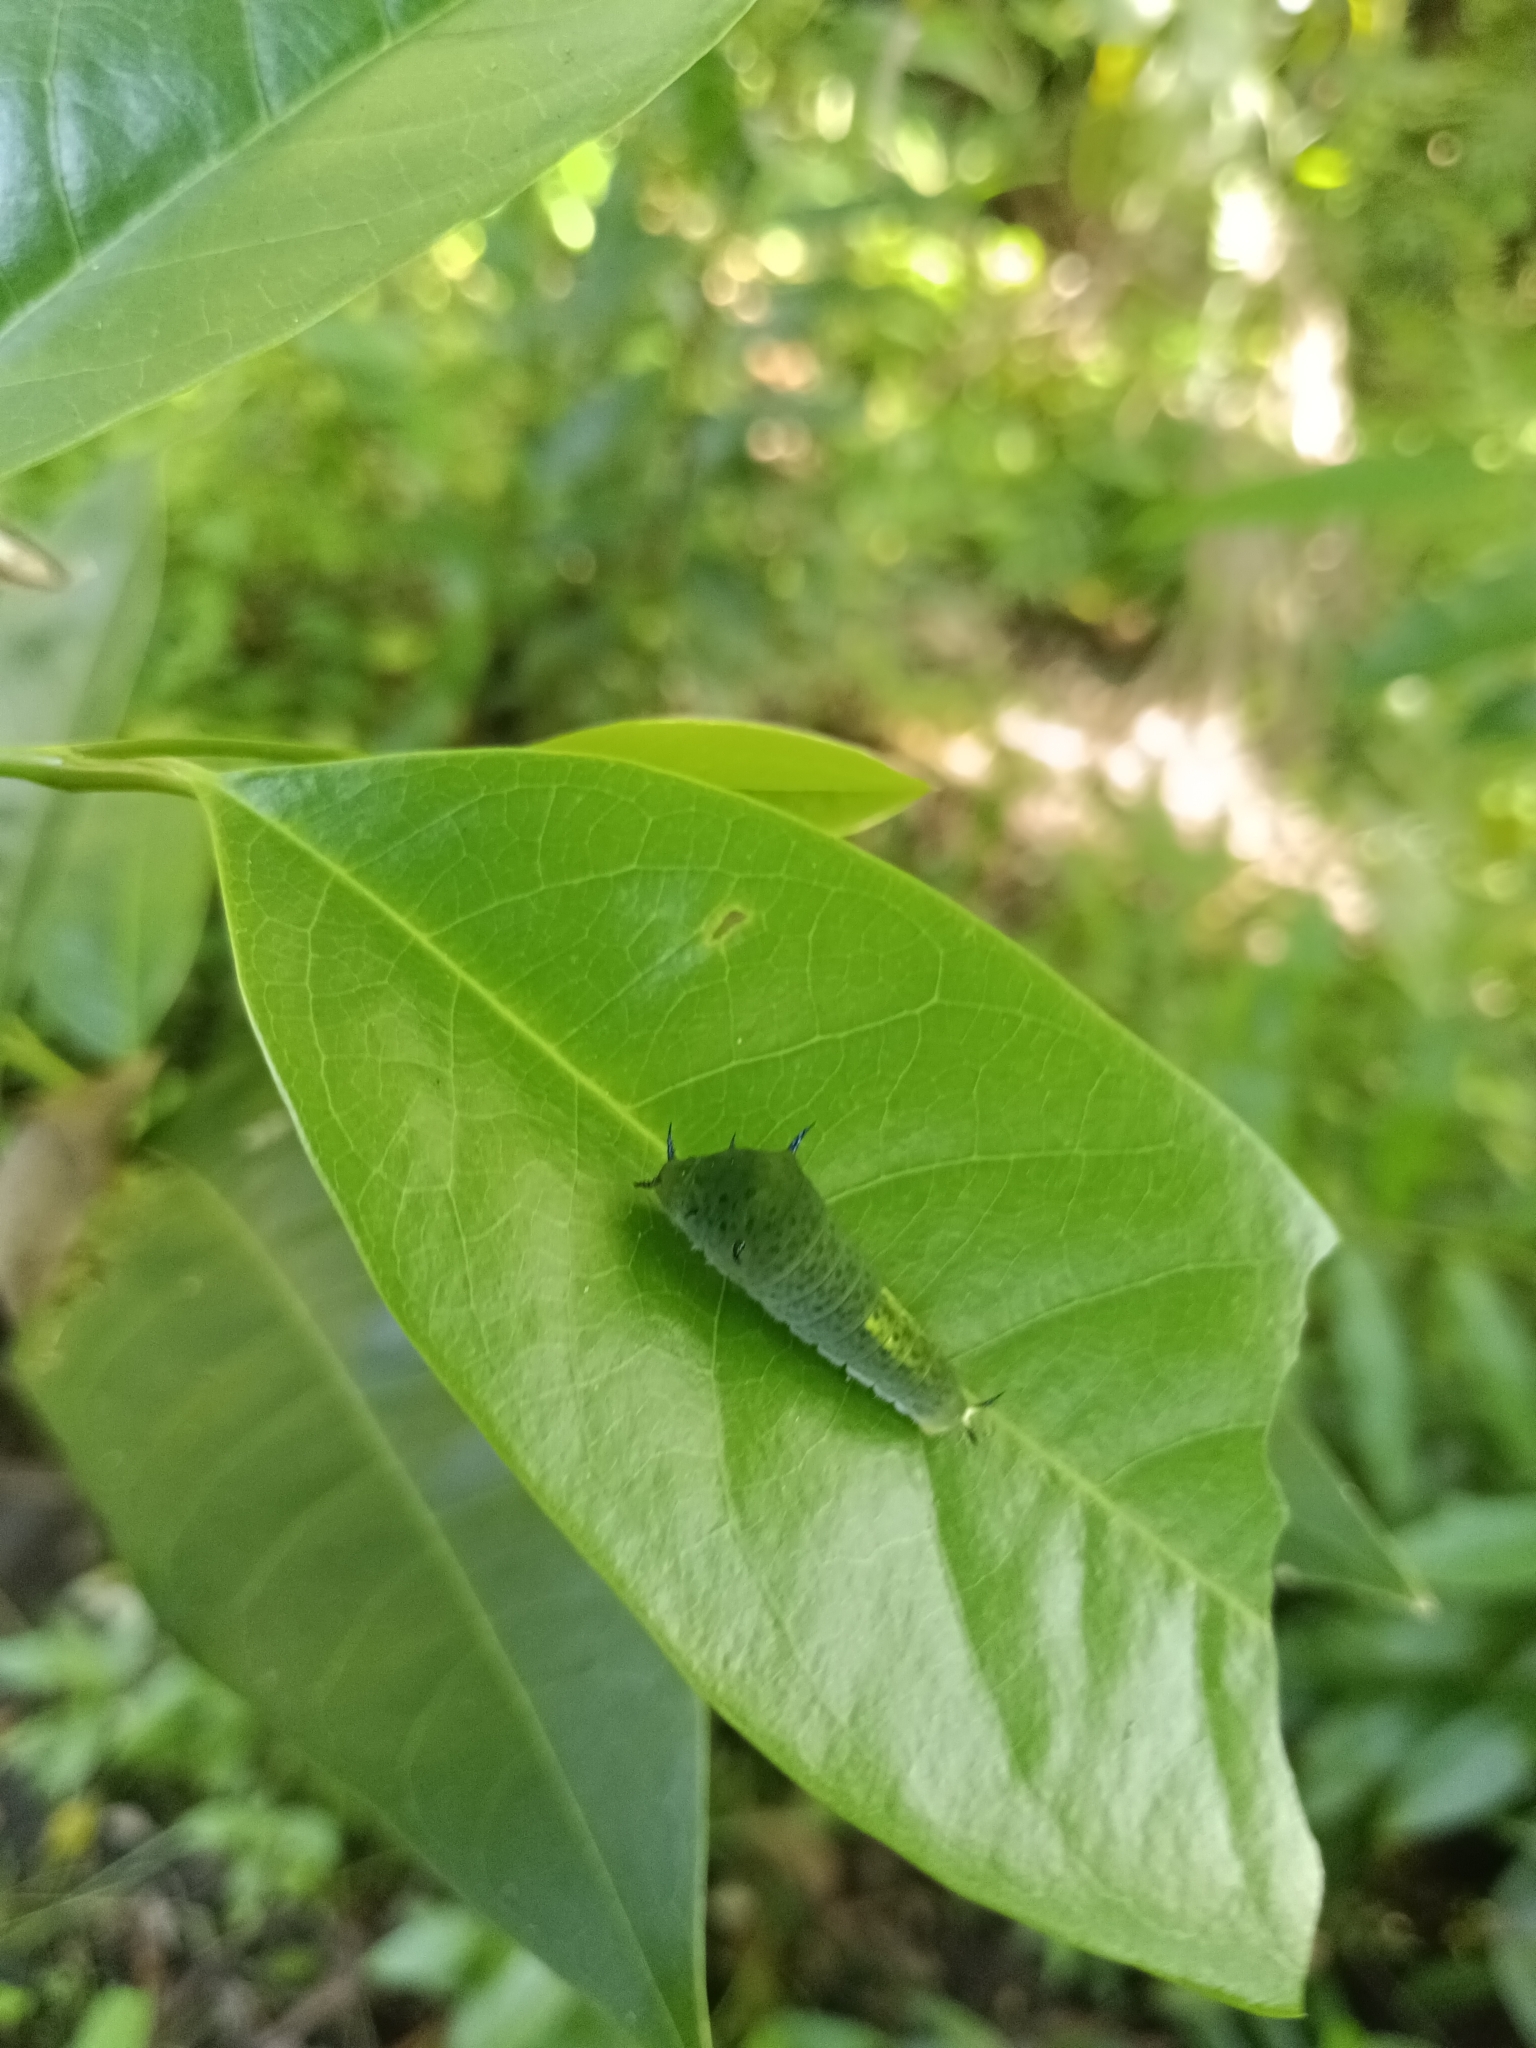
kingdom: Animalia
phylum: Arthropoda
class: Insecta
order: Lepidoptera
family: Papilionidae
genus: Graphium
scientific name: Graphium agamemnon
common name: Tailed jay
